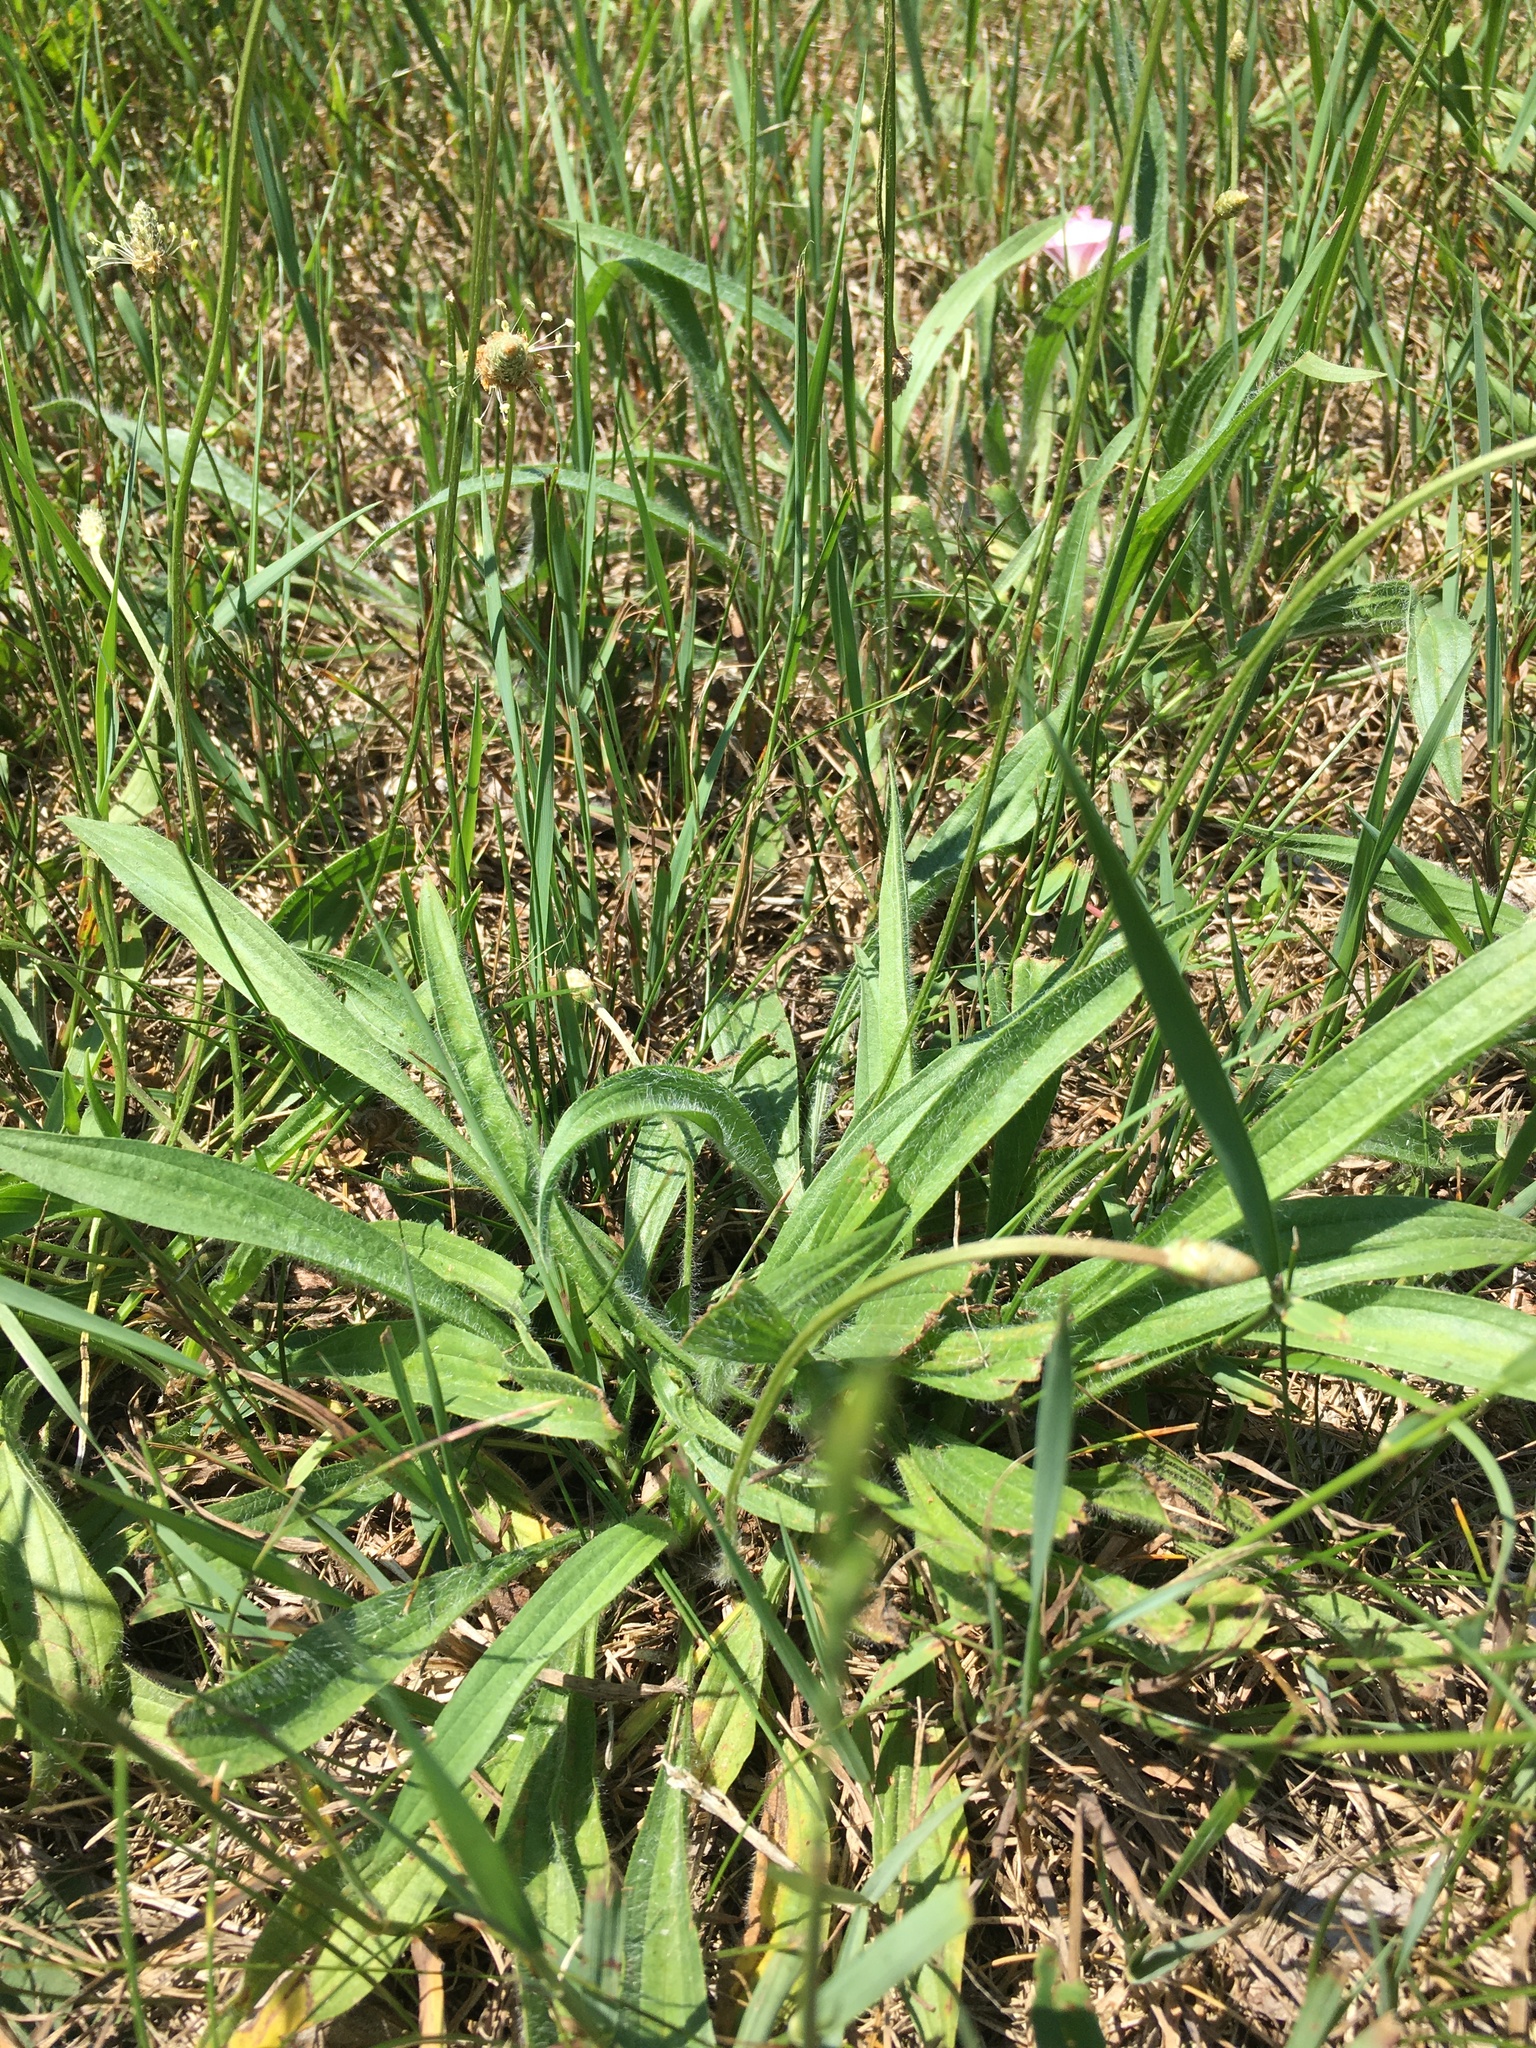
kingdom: Plantae
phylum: Tracheophyta
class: Magnoliopsida
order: Lamiales
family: Plantaginaceae
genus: Plantago
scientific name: Plantago lanceolata
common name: Ribwort plantain
